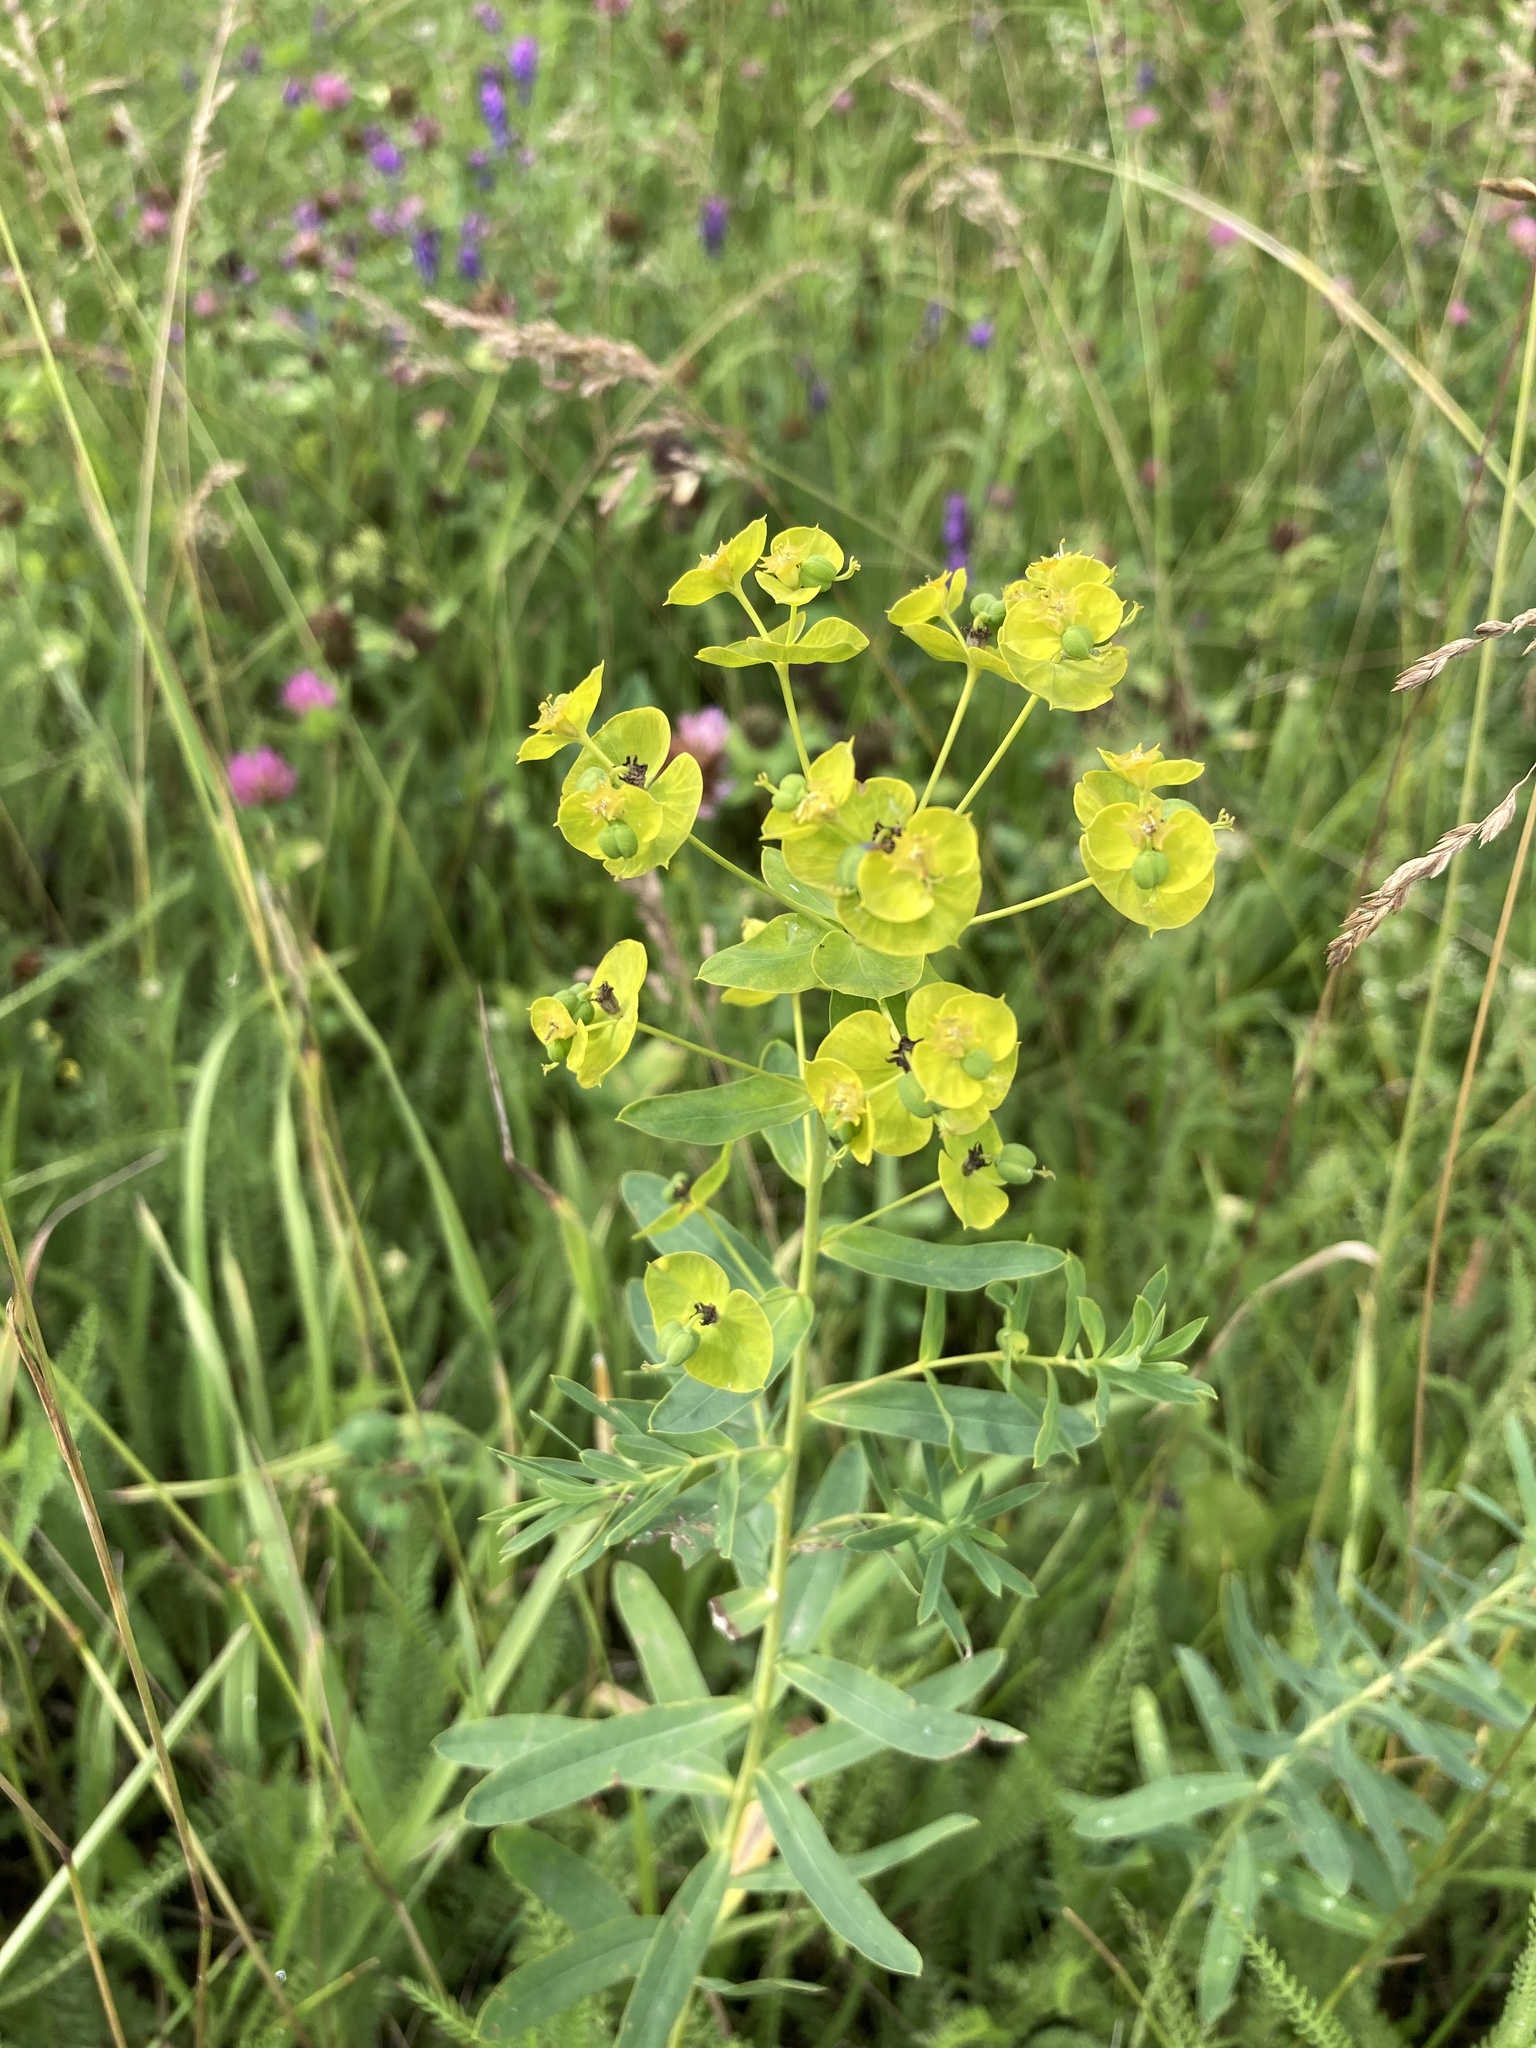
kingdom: Plantae
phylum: Tracheophyta
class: Magnoliopsida
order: Malpighiales
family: Euphorbiaceae
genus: Euphorbia
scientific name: Euphorbia virgata
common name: Leafy spurge
